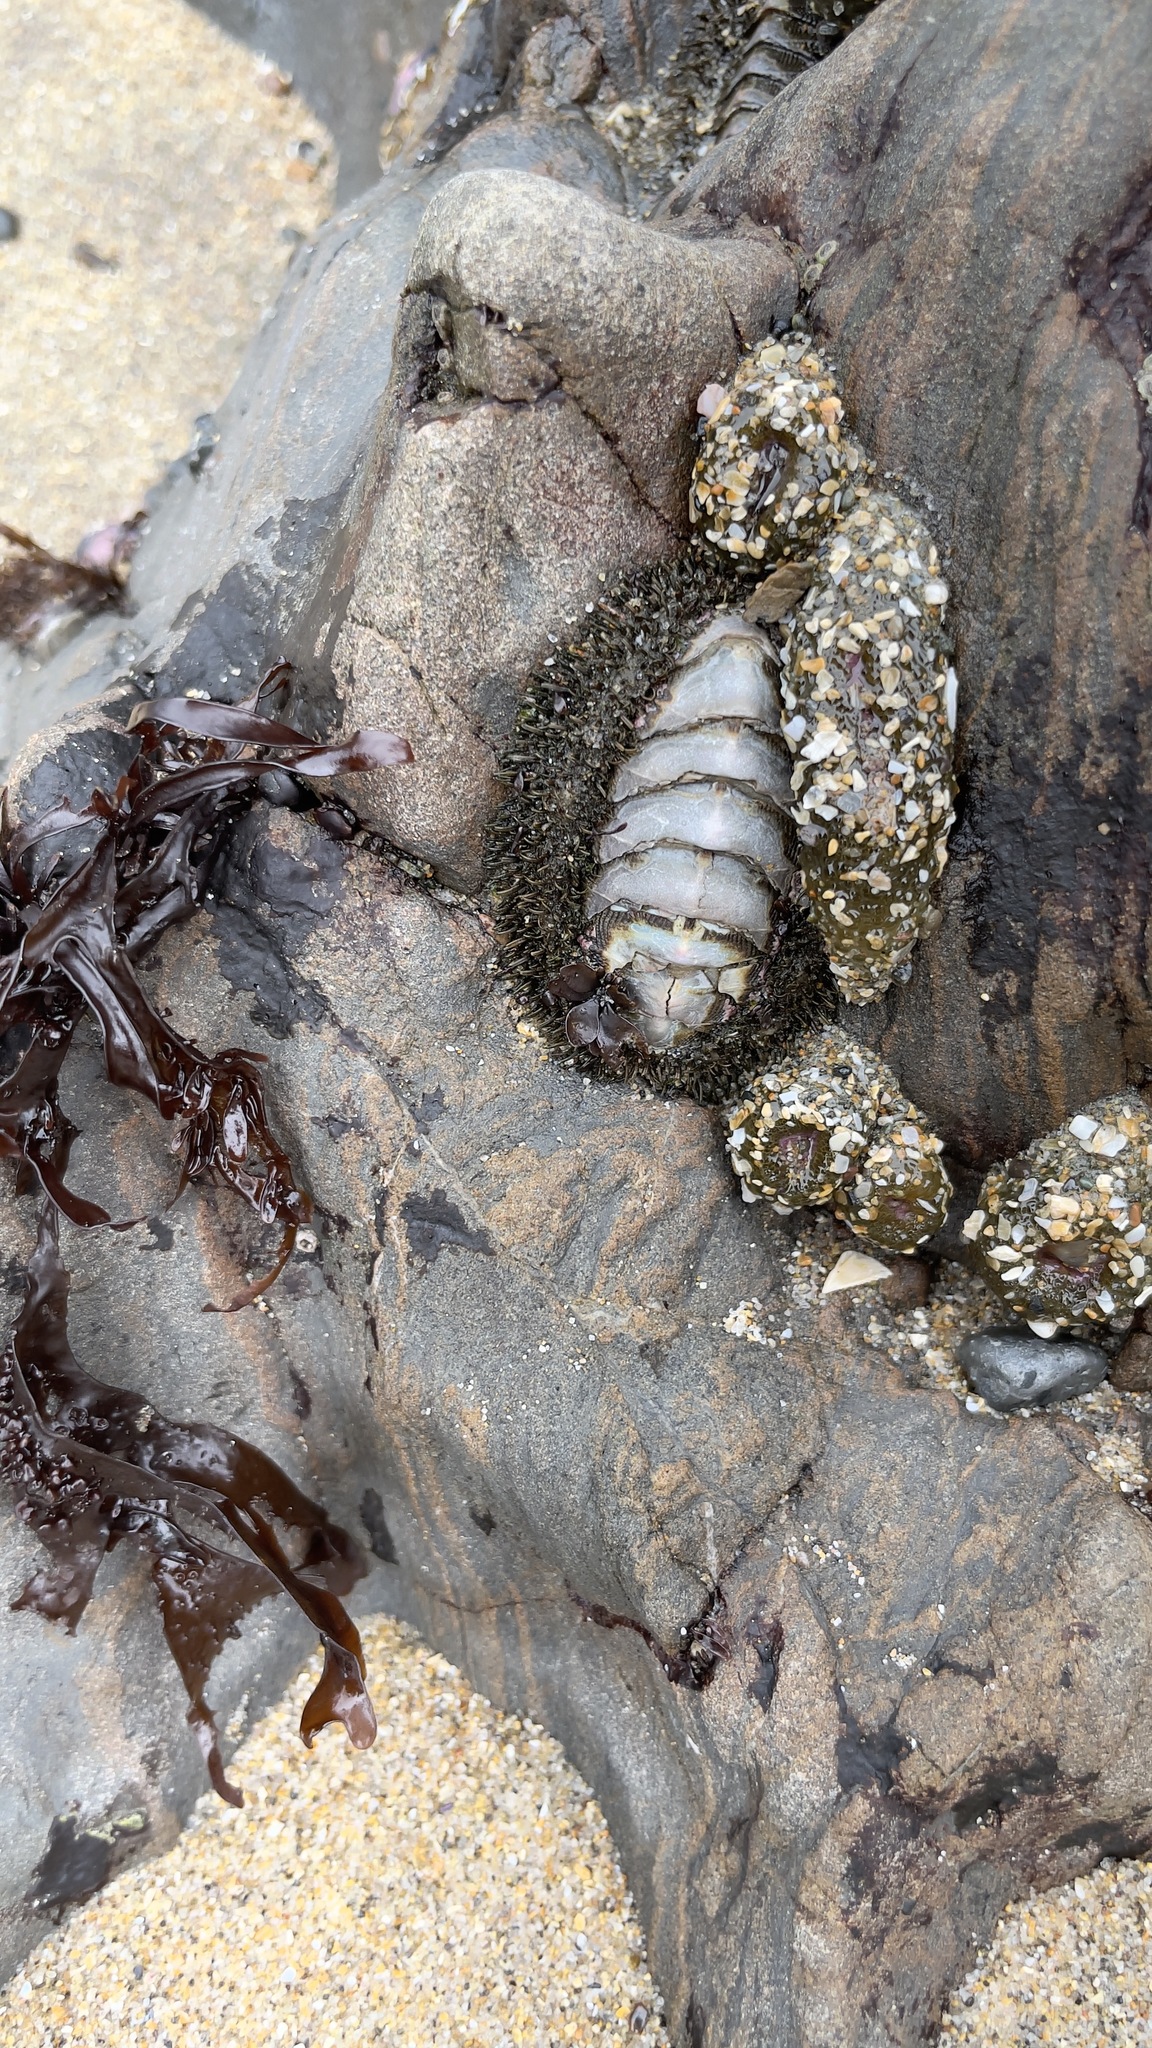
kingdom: Animalia
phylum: Mollusca
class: Polyplacophora
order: Chitonida
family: Mopaliidae
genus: Mopalia
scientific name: Mopalia muscosa
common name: Mossy chiton
